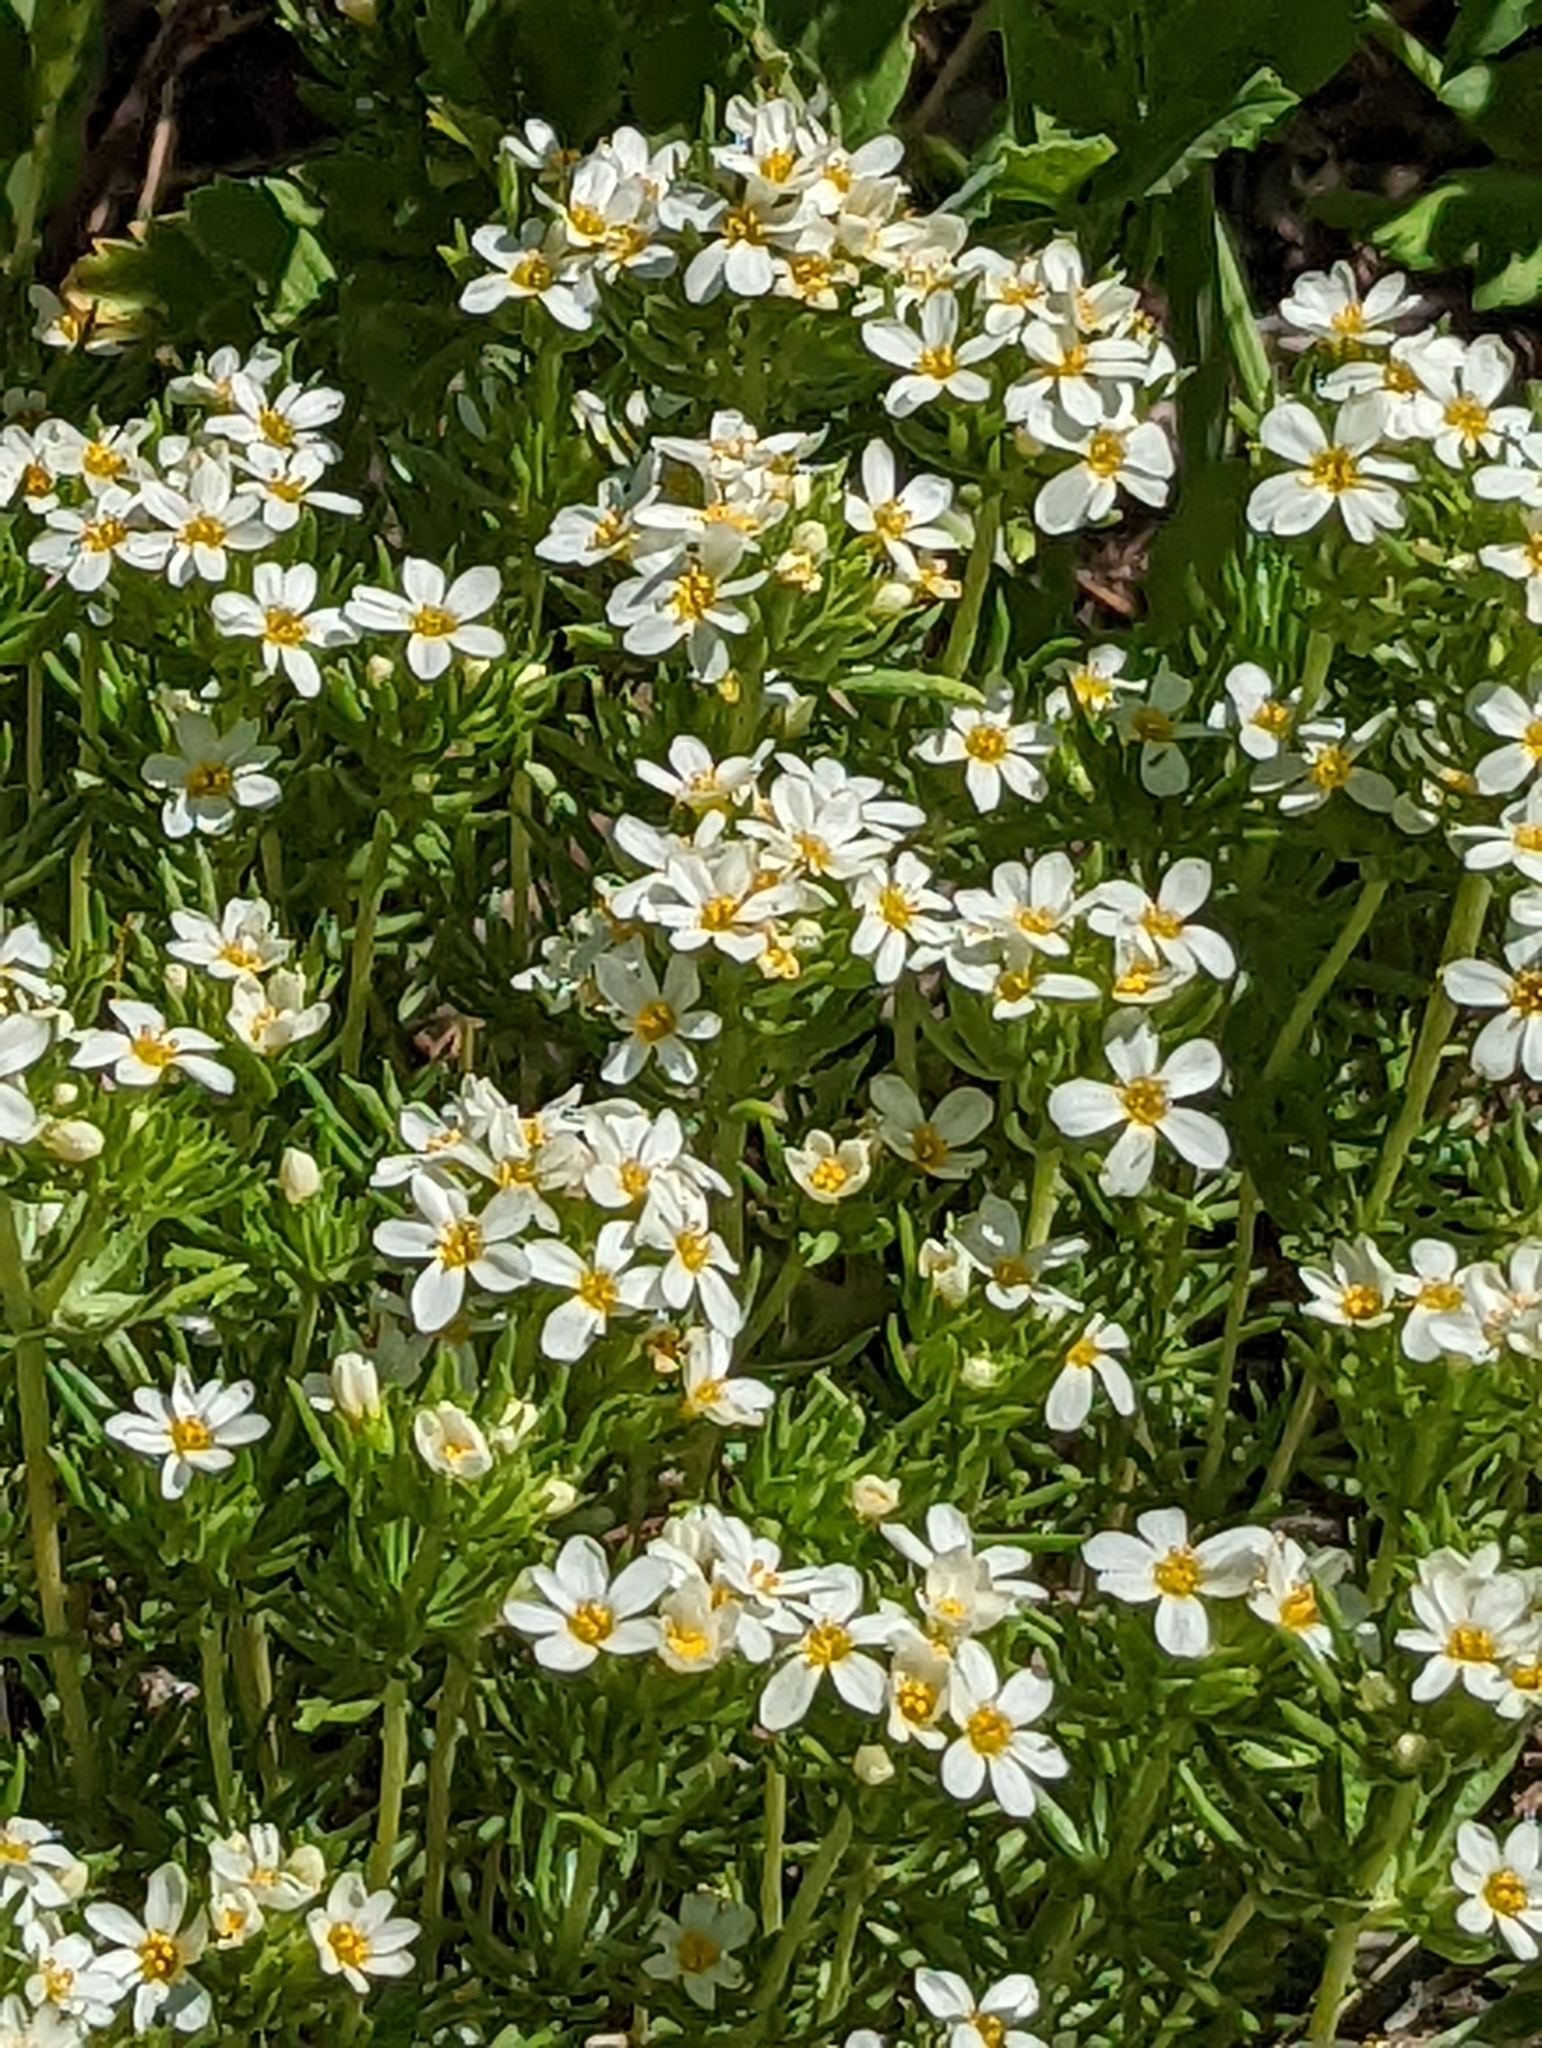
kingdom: Plantae
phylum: Tracheophyta
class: Magnoliopsida
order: Ericales
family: Polemoniaceae
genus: Leptosiphon
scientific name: Leptosiphon nuttallii
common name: Nuttall's linanthus
